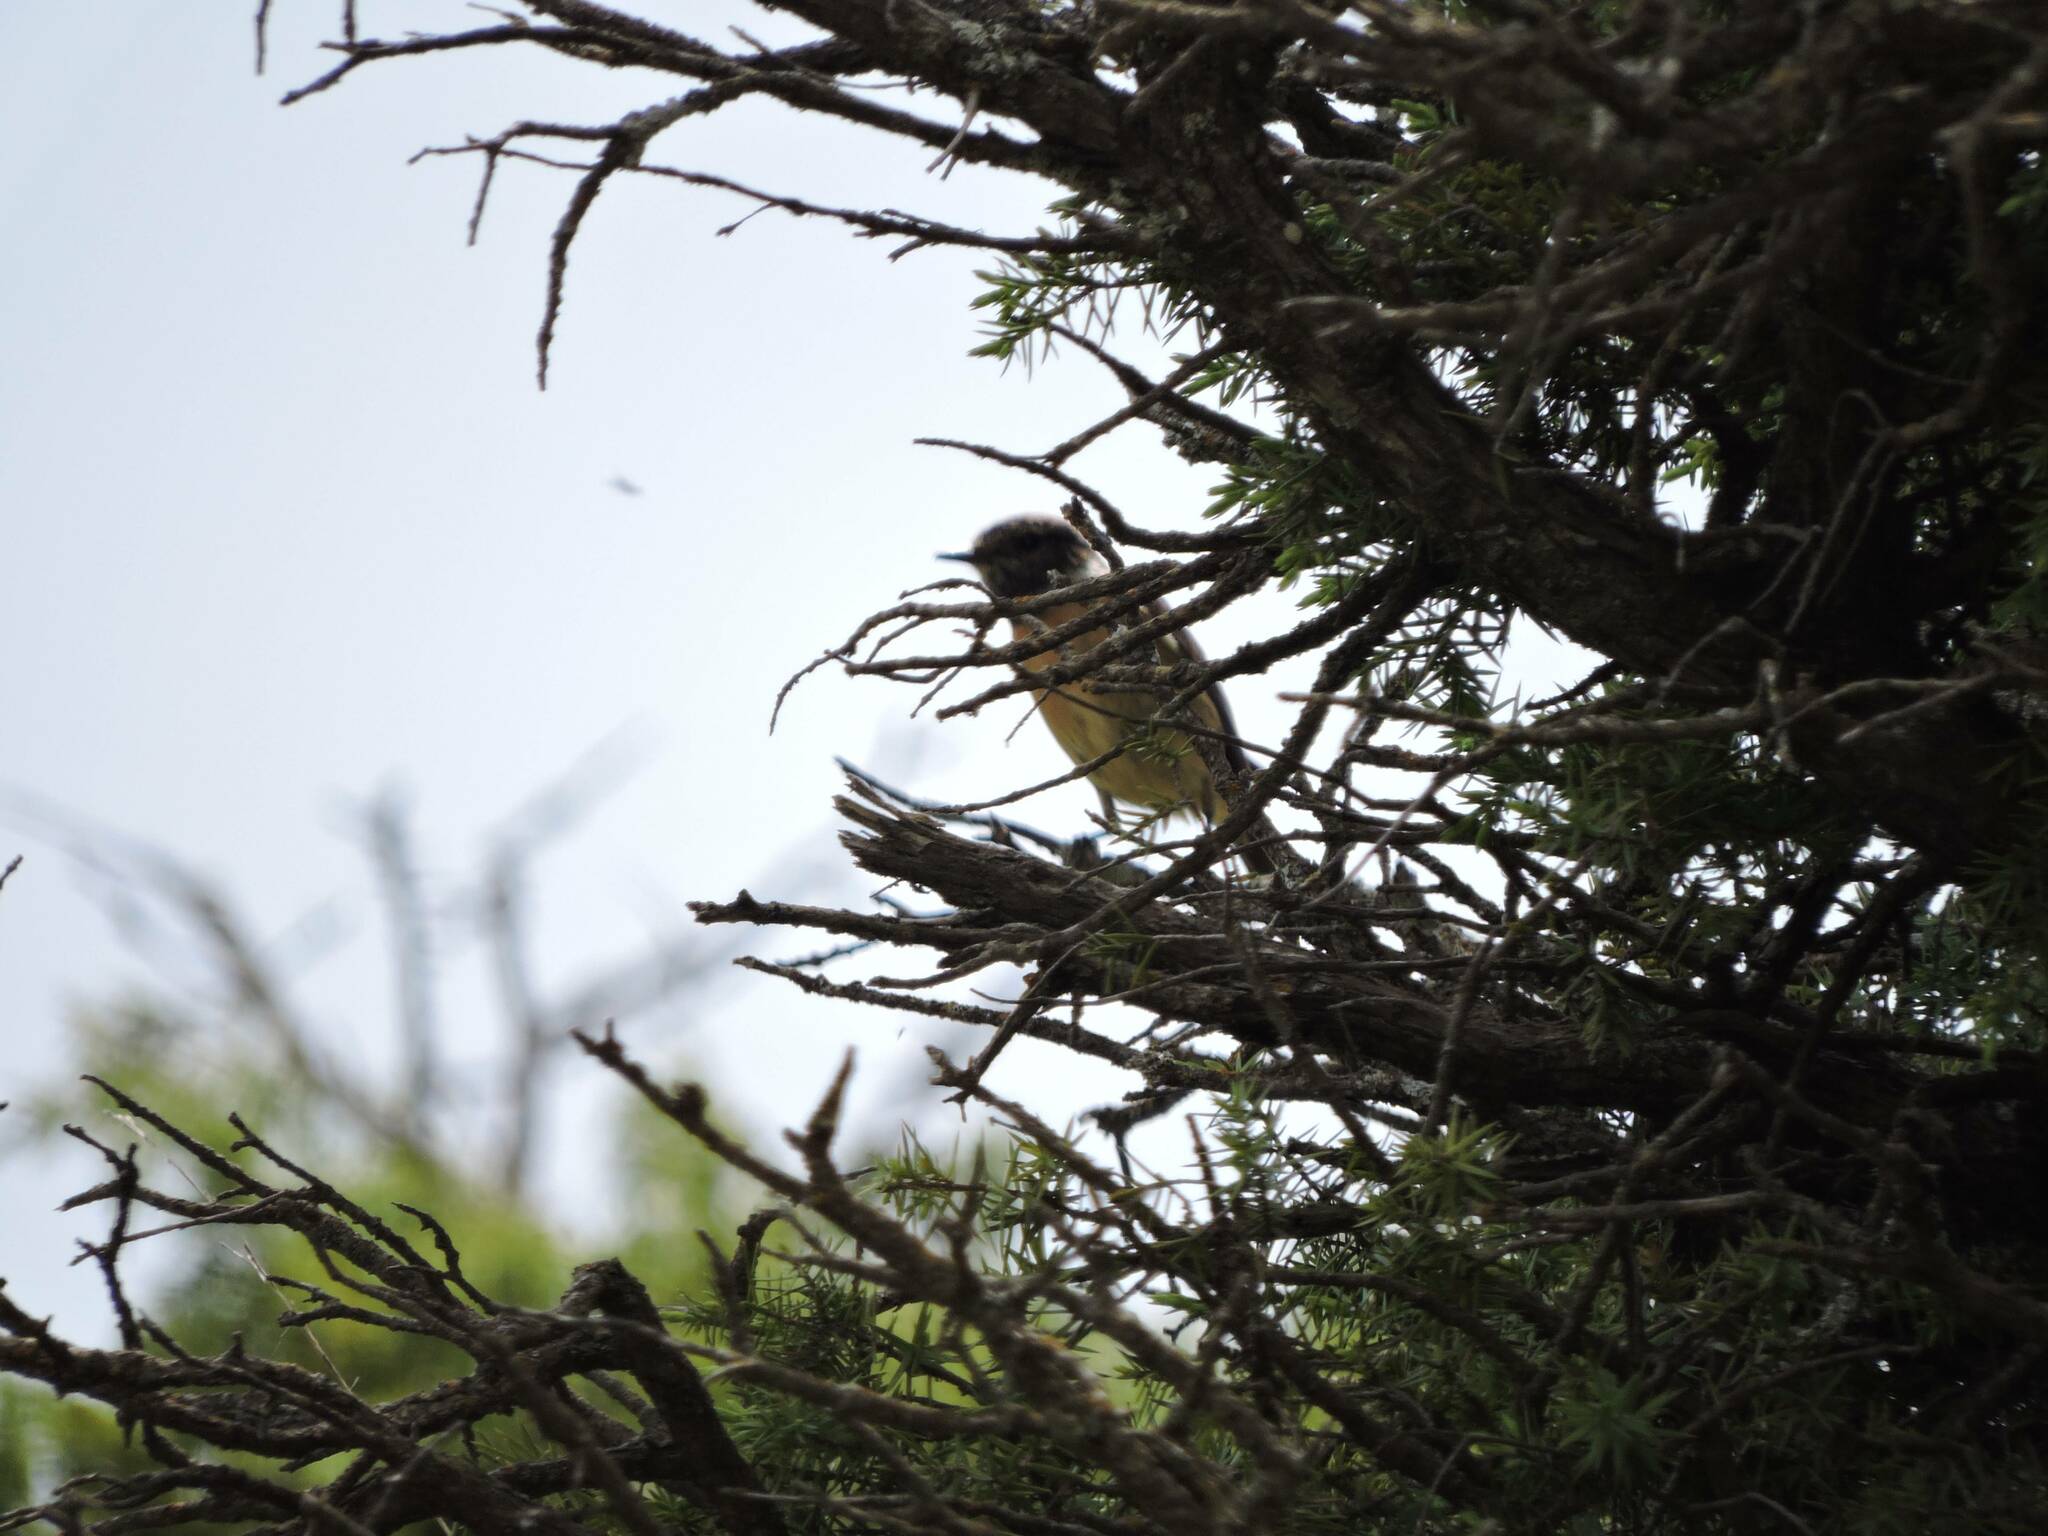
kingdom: Animalia
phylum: Chordata
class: Aves
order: Passeriformes
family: Muscicapidae
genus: Saxicola
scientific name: Saxicola rubicola
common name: European stonechat
